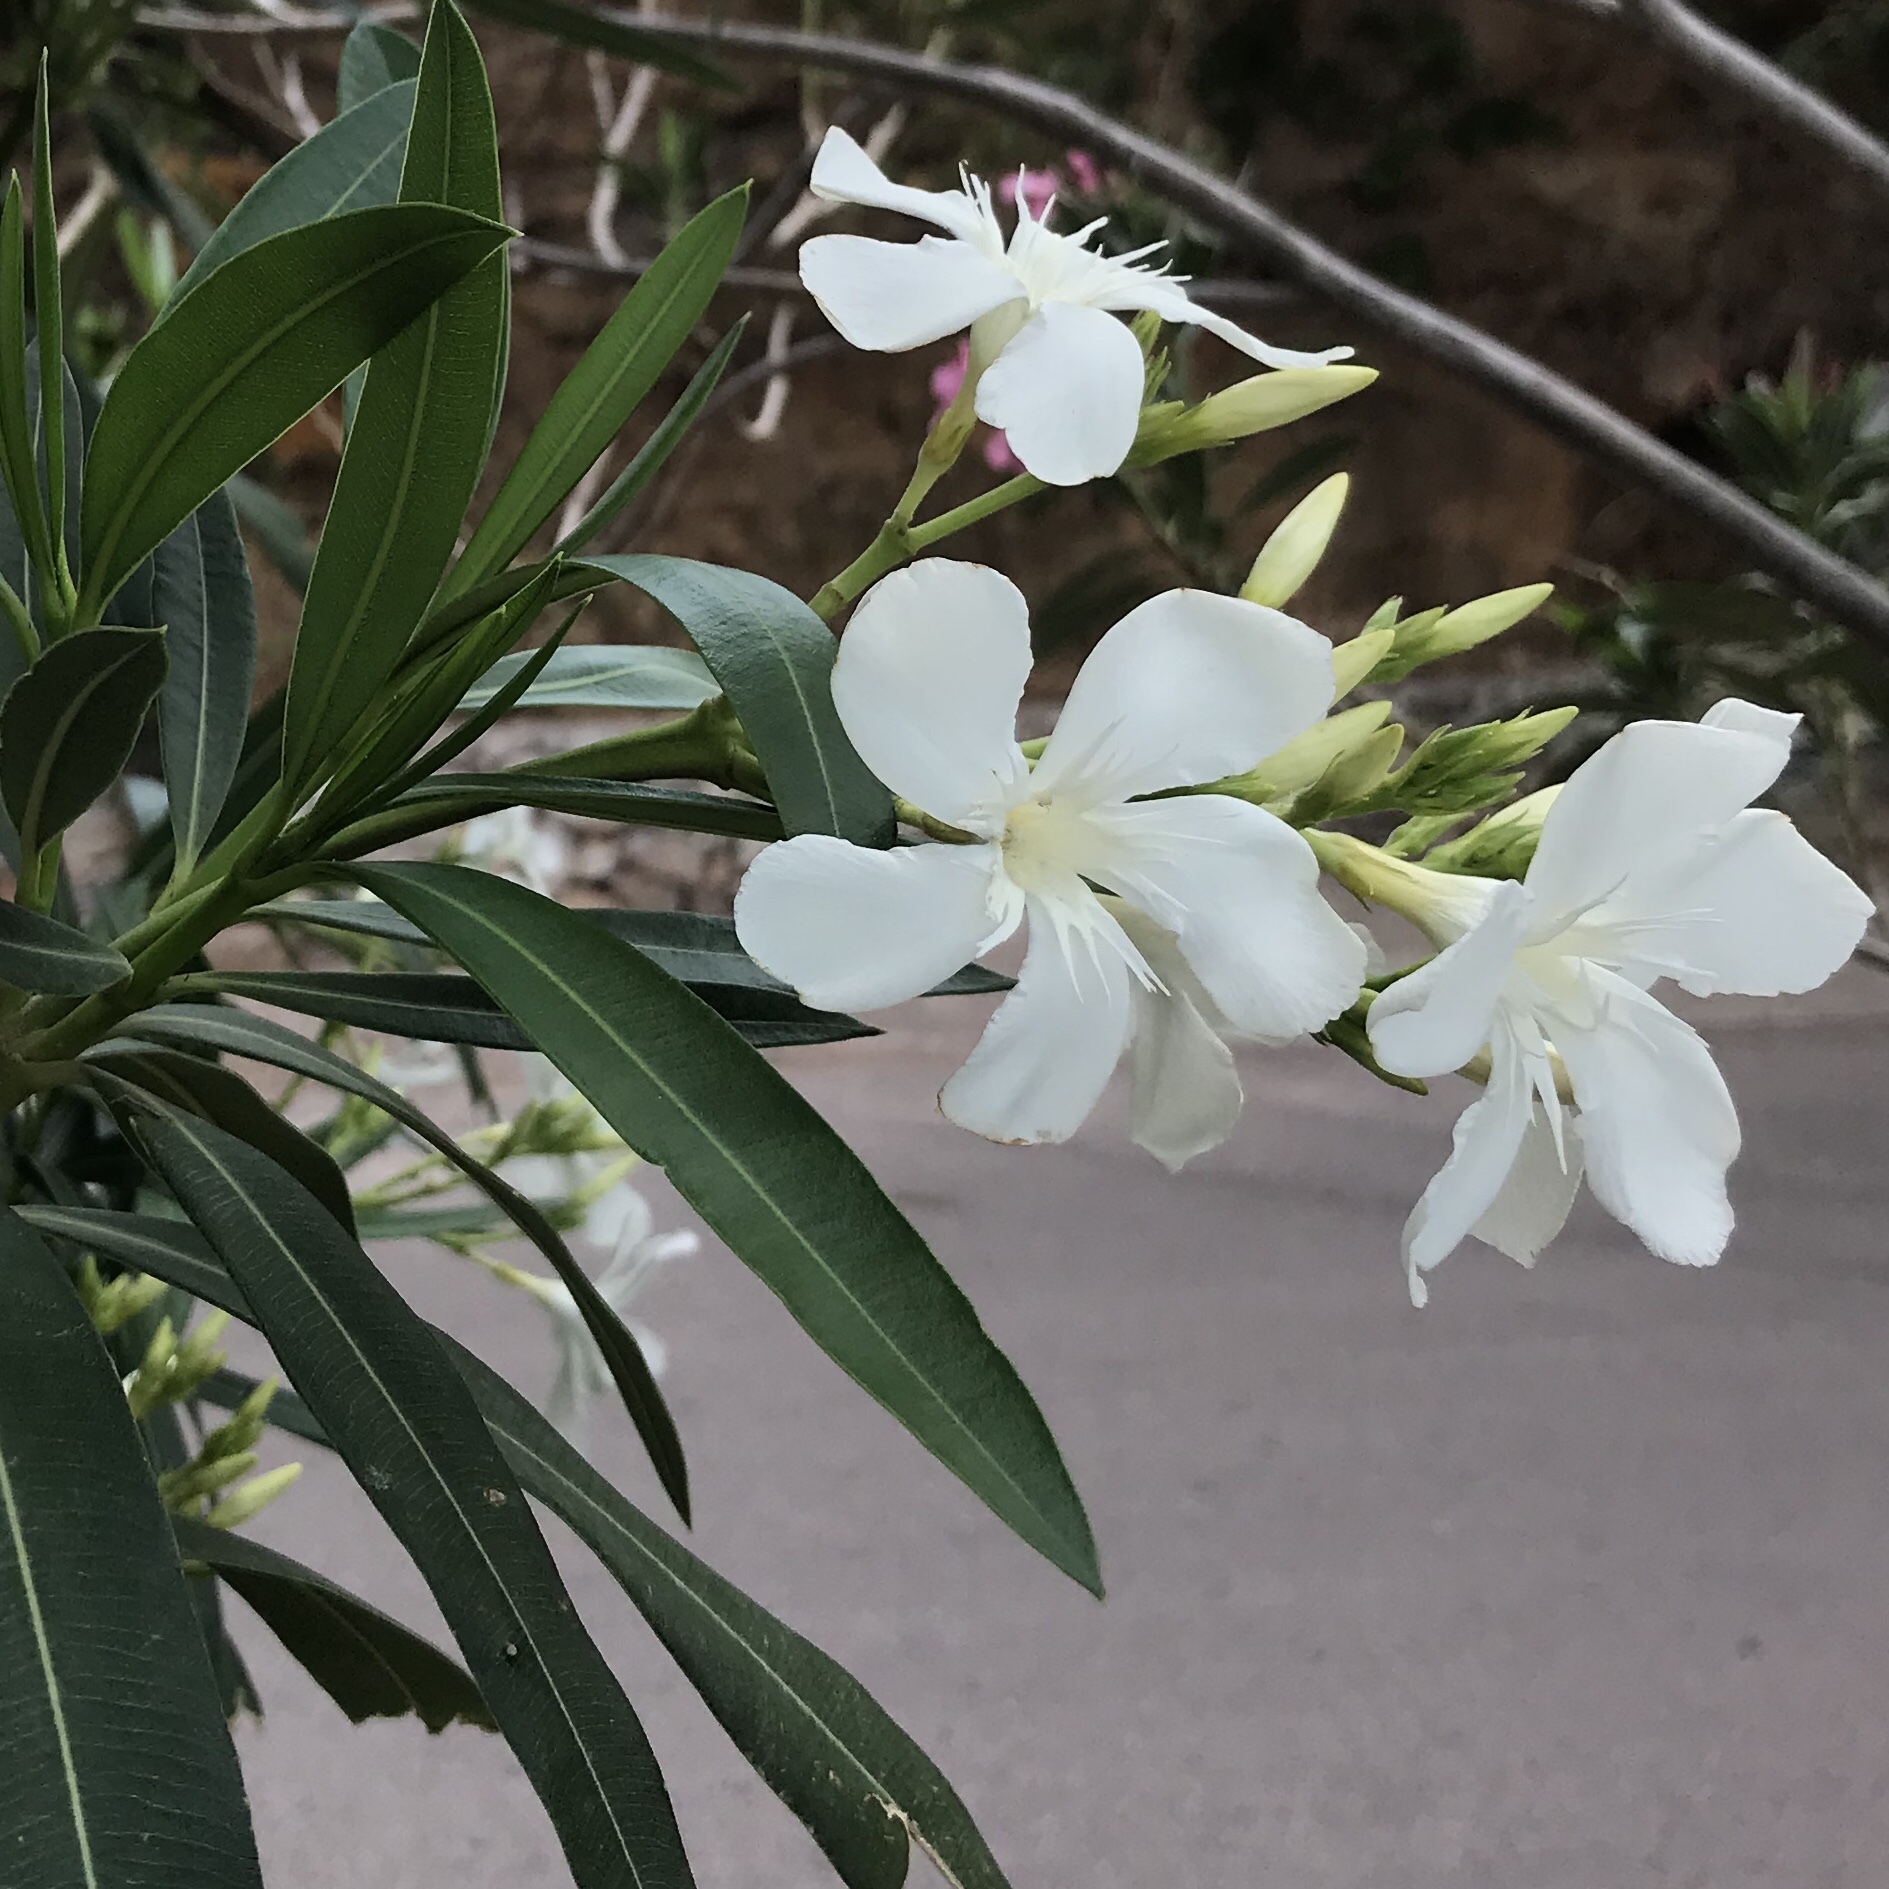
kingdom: Plantae
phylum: Tracheophyta
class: Magnoliopsida
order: Gentianales
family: Apocynaceae
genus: Nerium
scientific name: Nerium oleander
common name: Oleander
